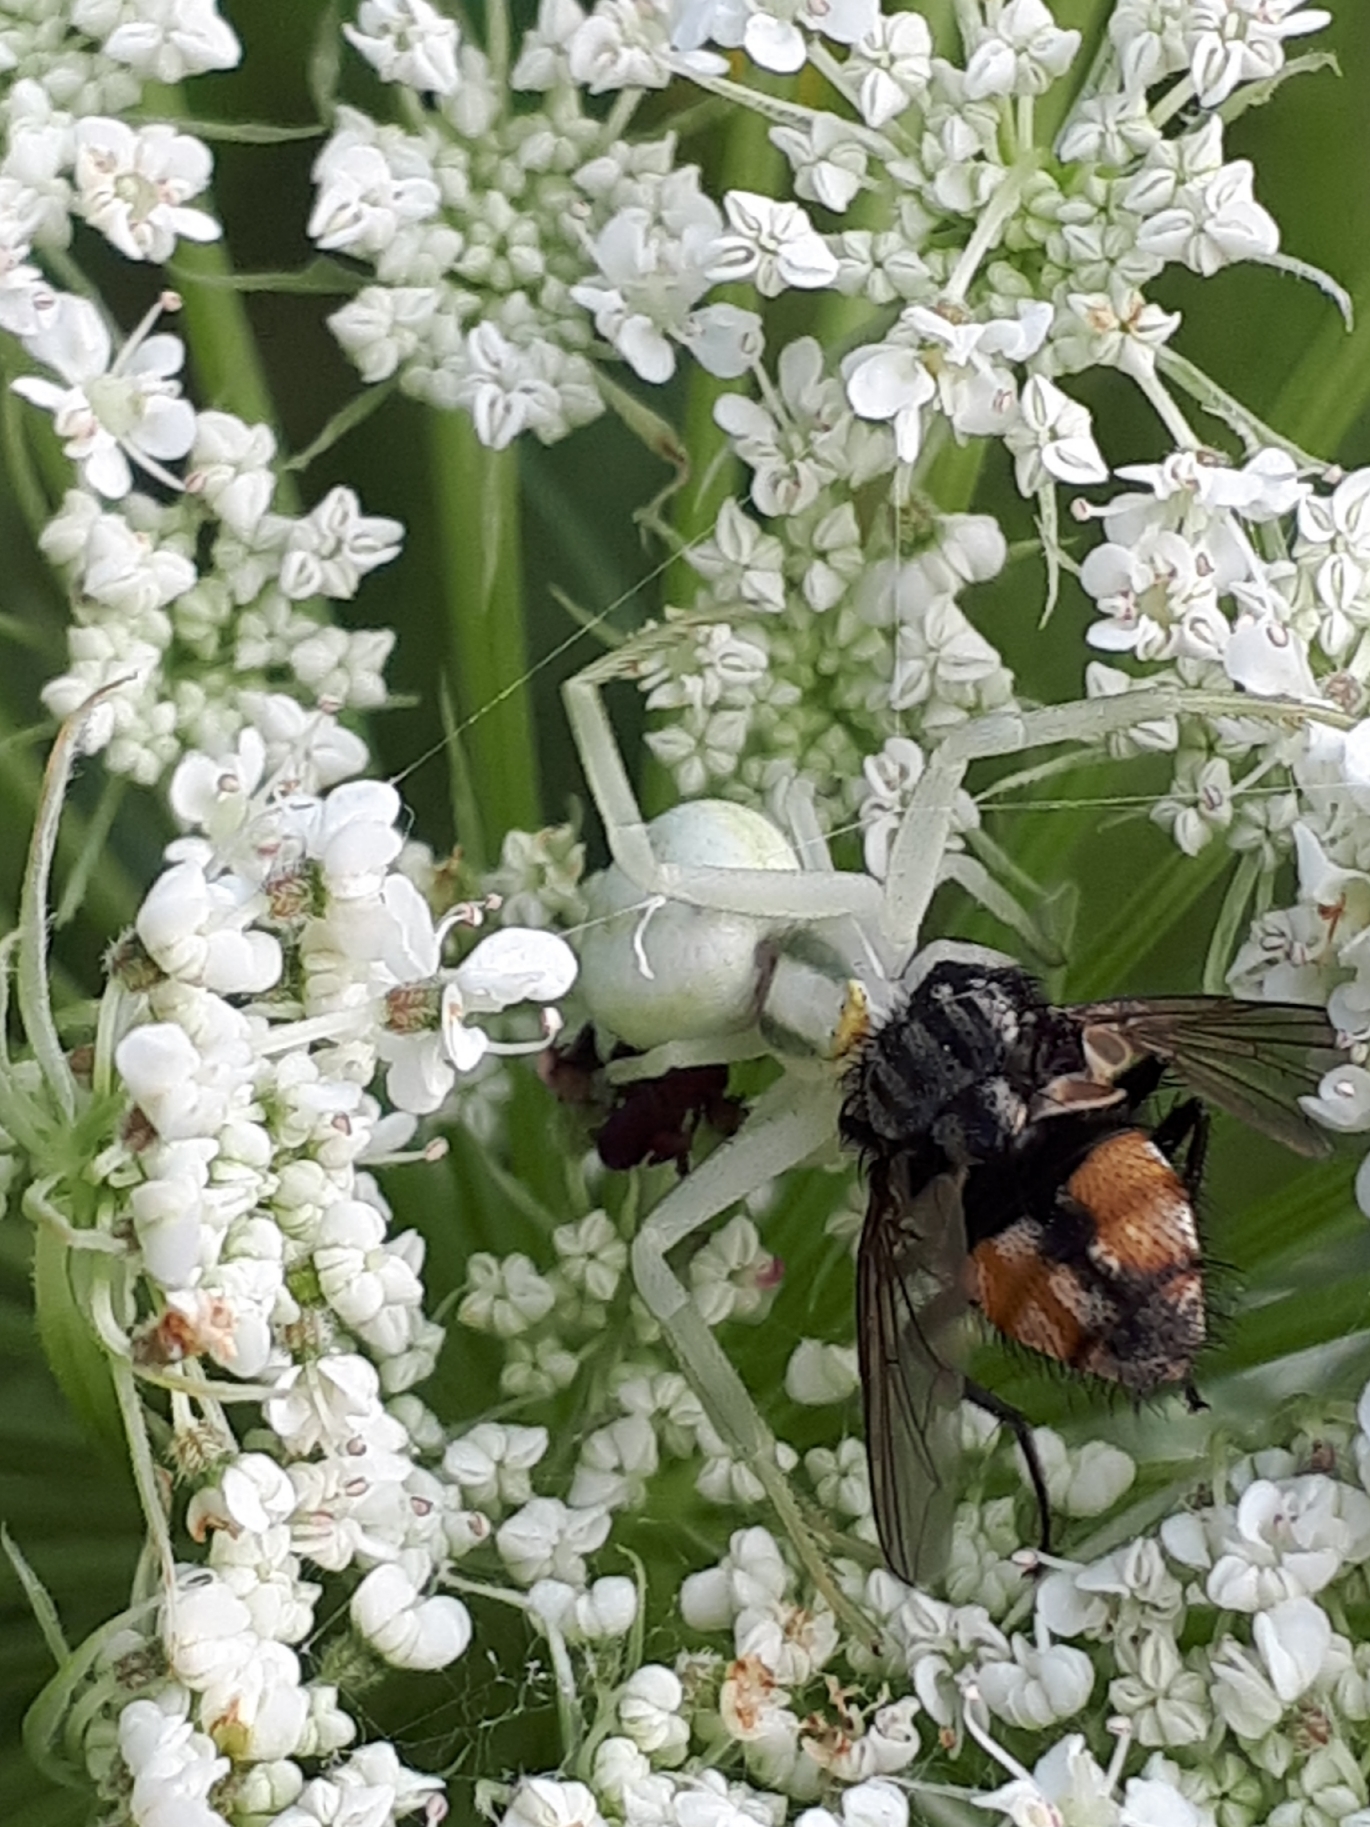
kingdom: Animalia
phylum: Arthropoda
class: Arachnida
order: Araneae
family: Thomisidae
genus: Misumena
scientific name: Misumena vatia
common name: Goldenrod crab spider
